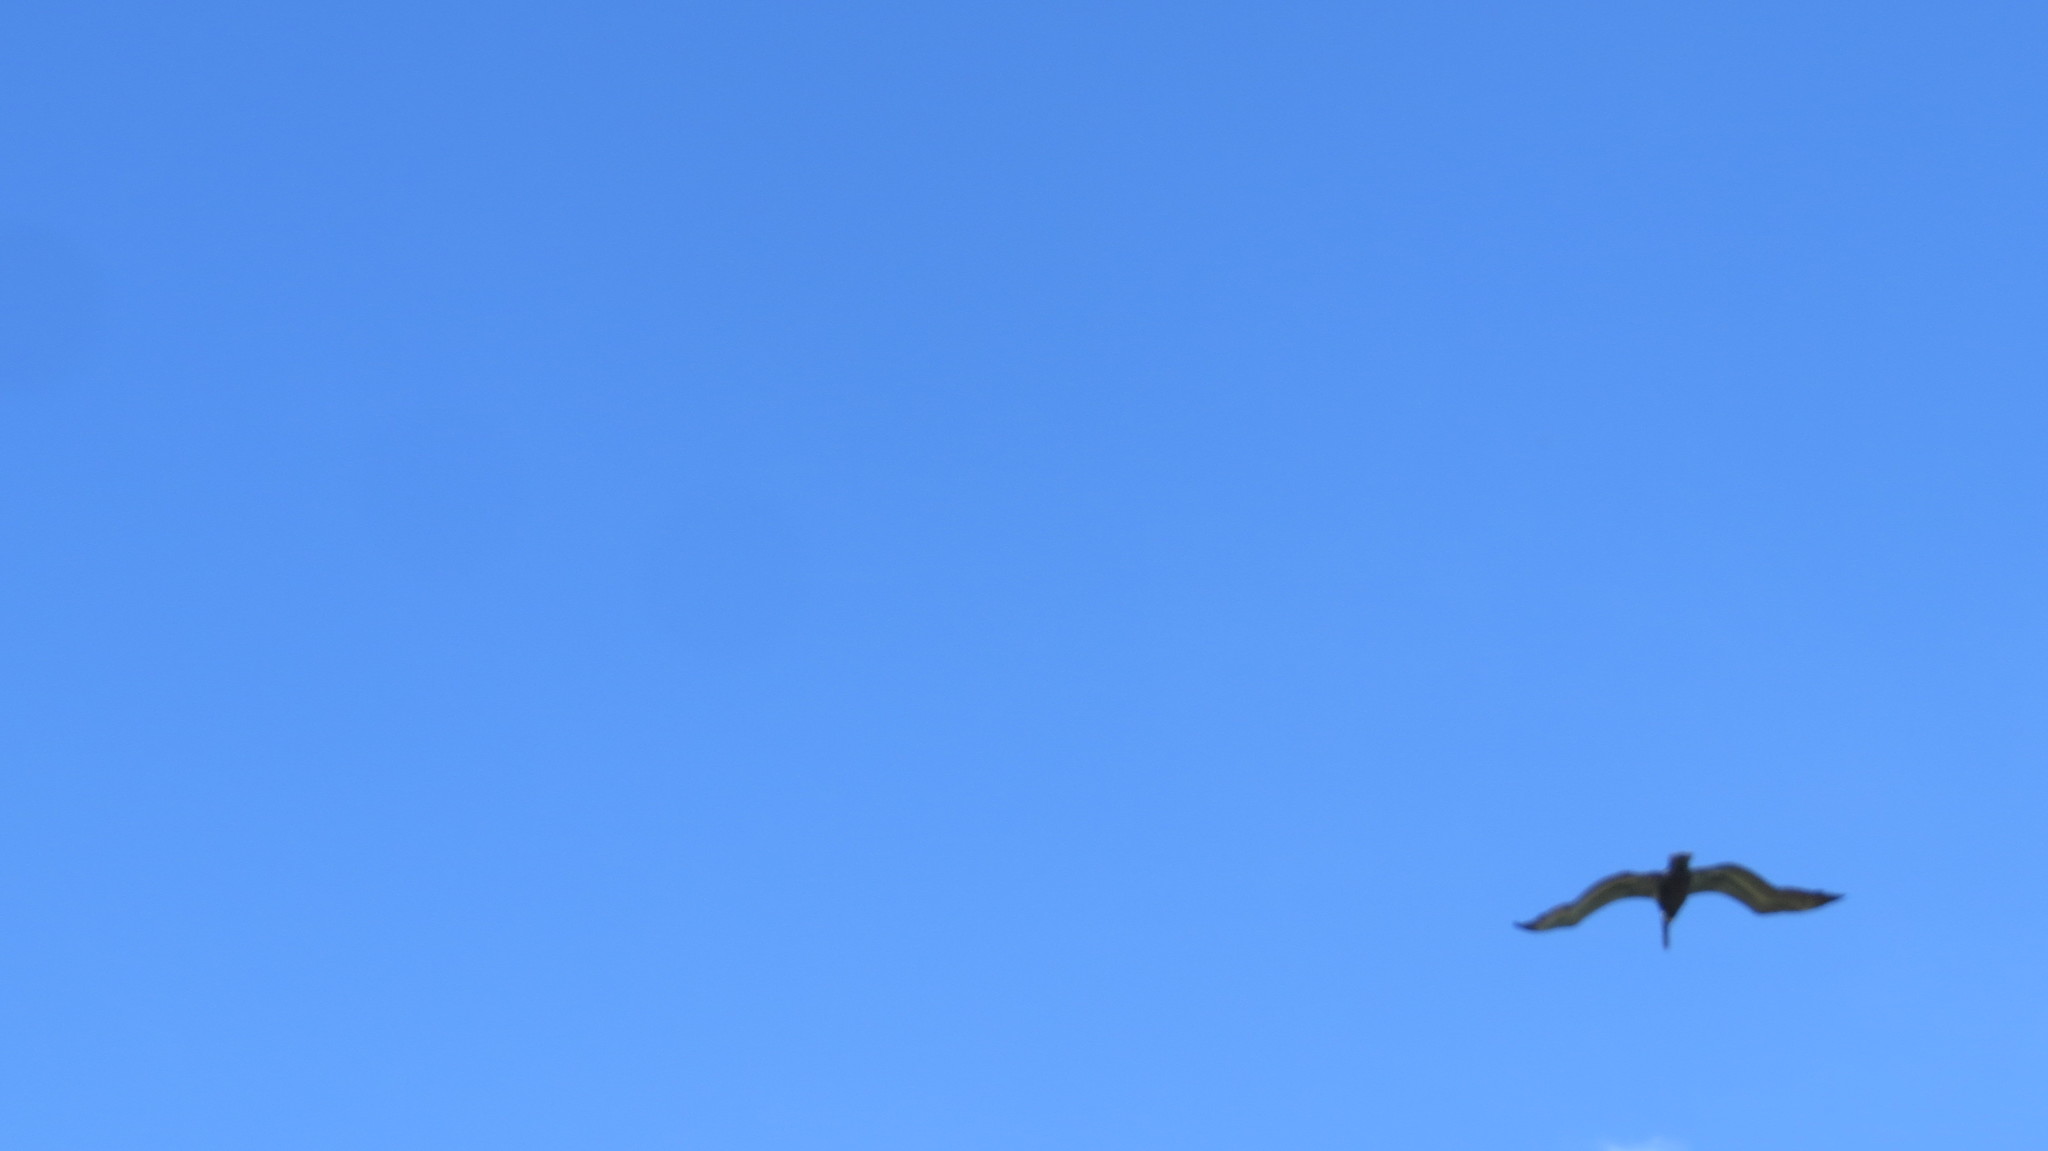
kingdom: Animalia
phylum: Chordata
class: Aves
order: Pelecaniformes
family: Pelecanidae
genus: Pelecanus
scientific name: Pelecanus occidentalis
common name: Brown pelican
